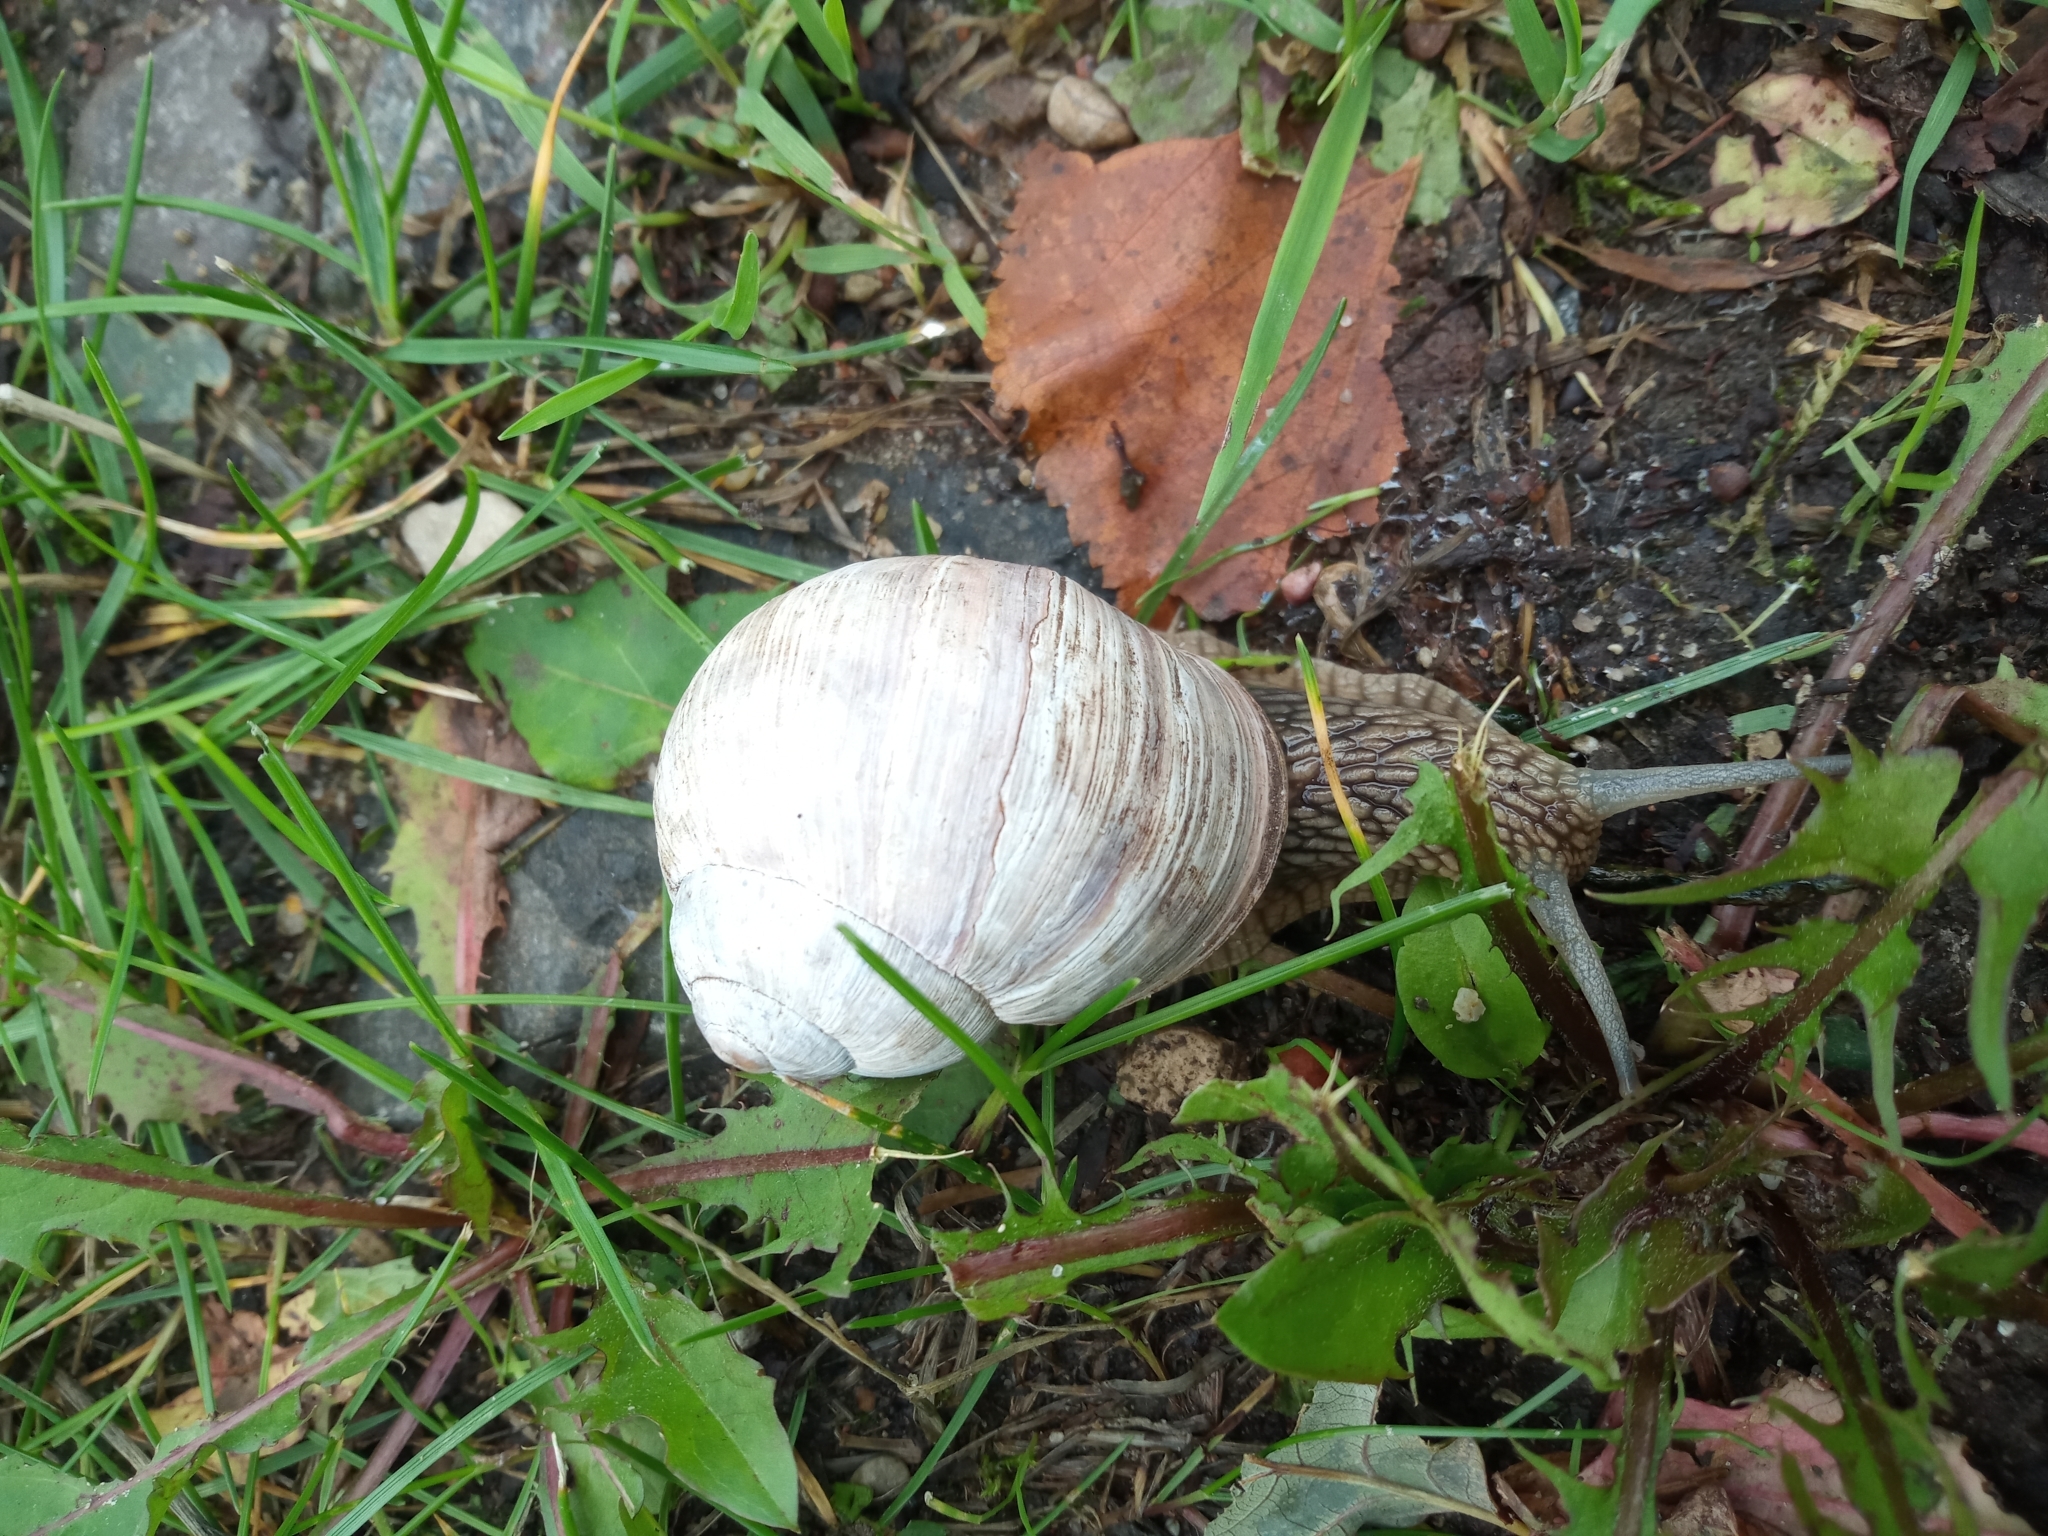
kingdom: Animalia
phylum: Mollusca
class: Gastropoda
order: Stylommatophora
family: Helicidae
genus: Helix
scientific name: Helix pomatia
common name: Roman snail
